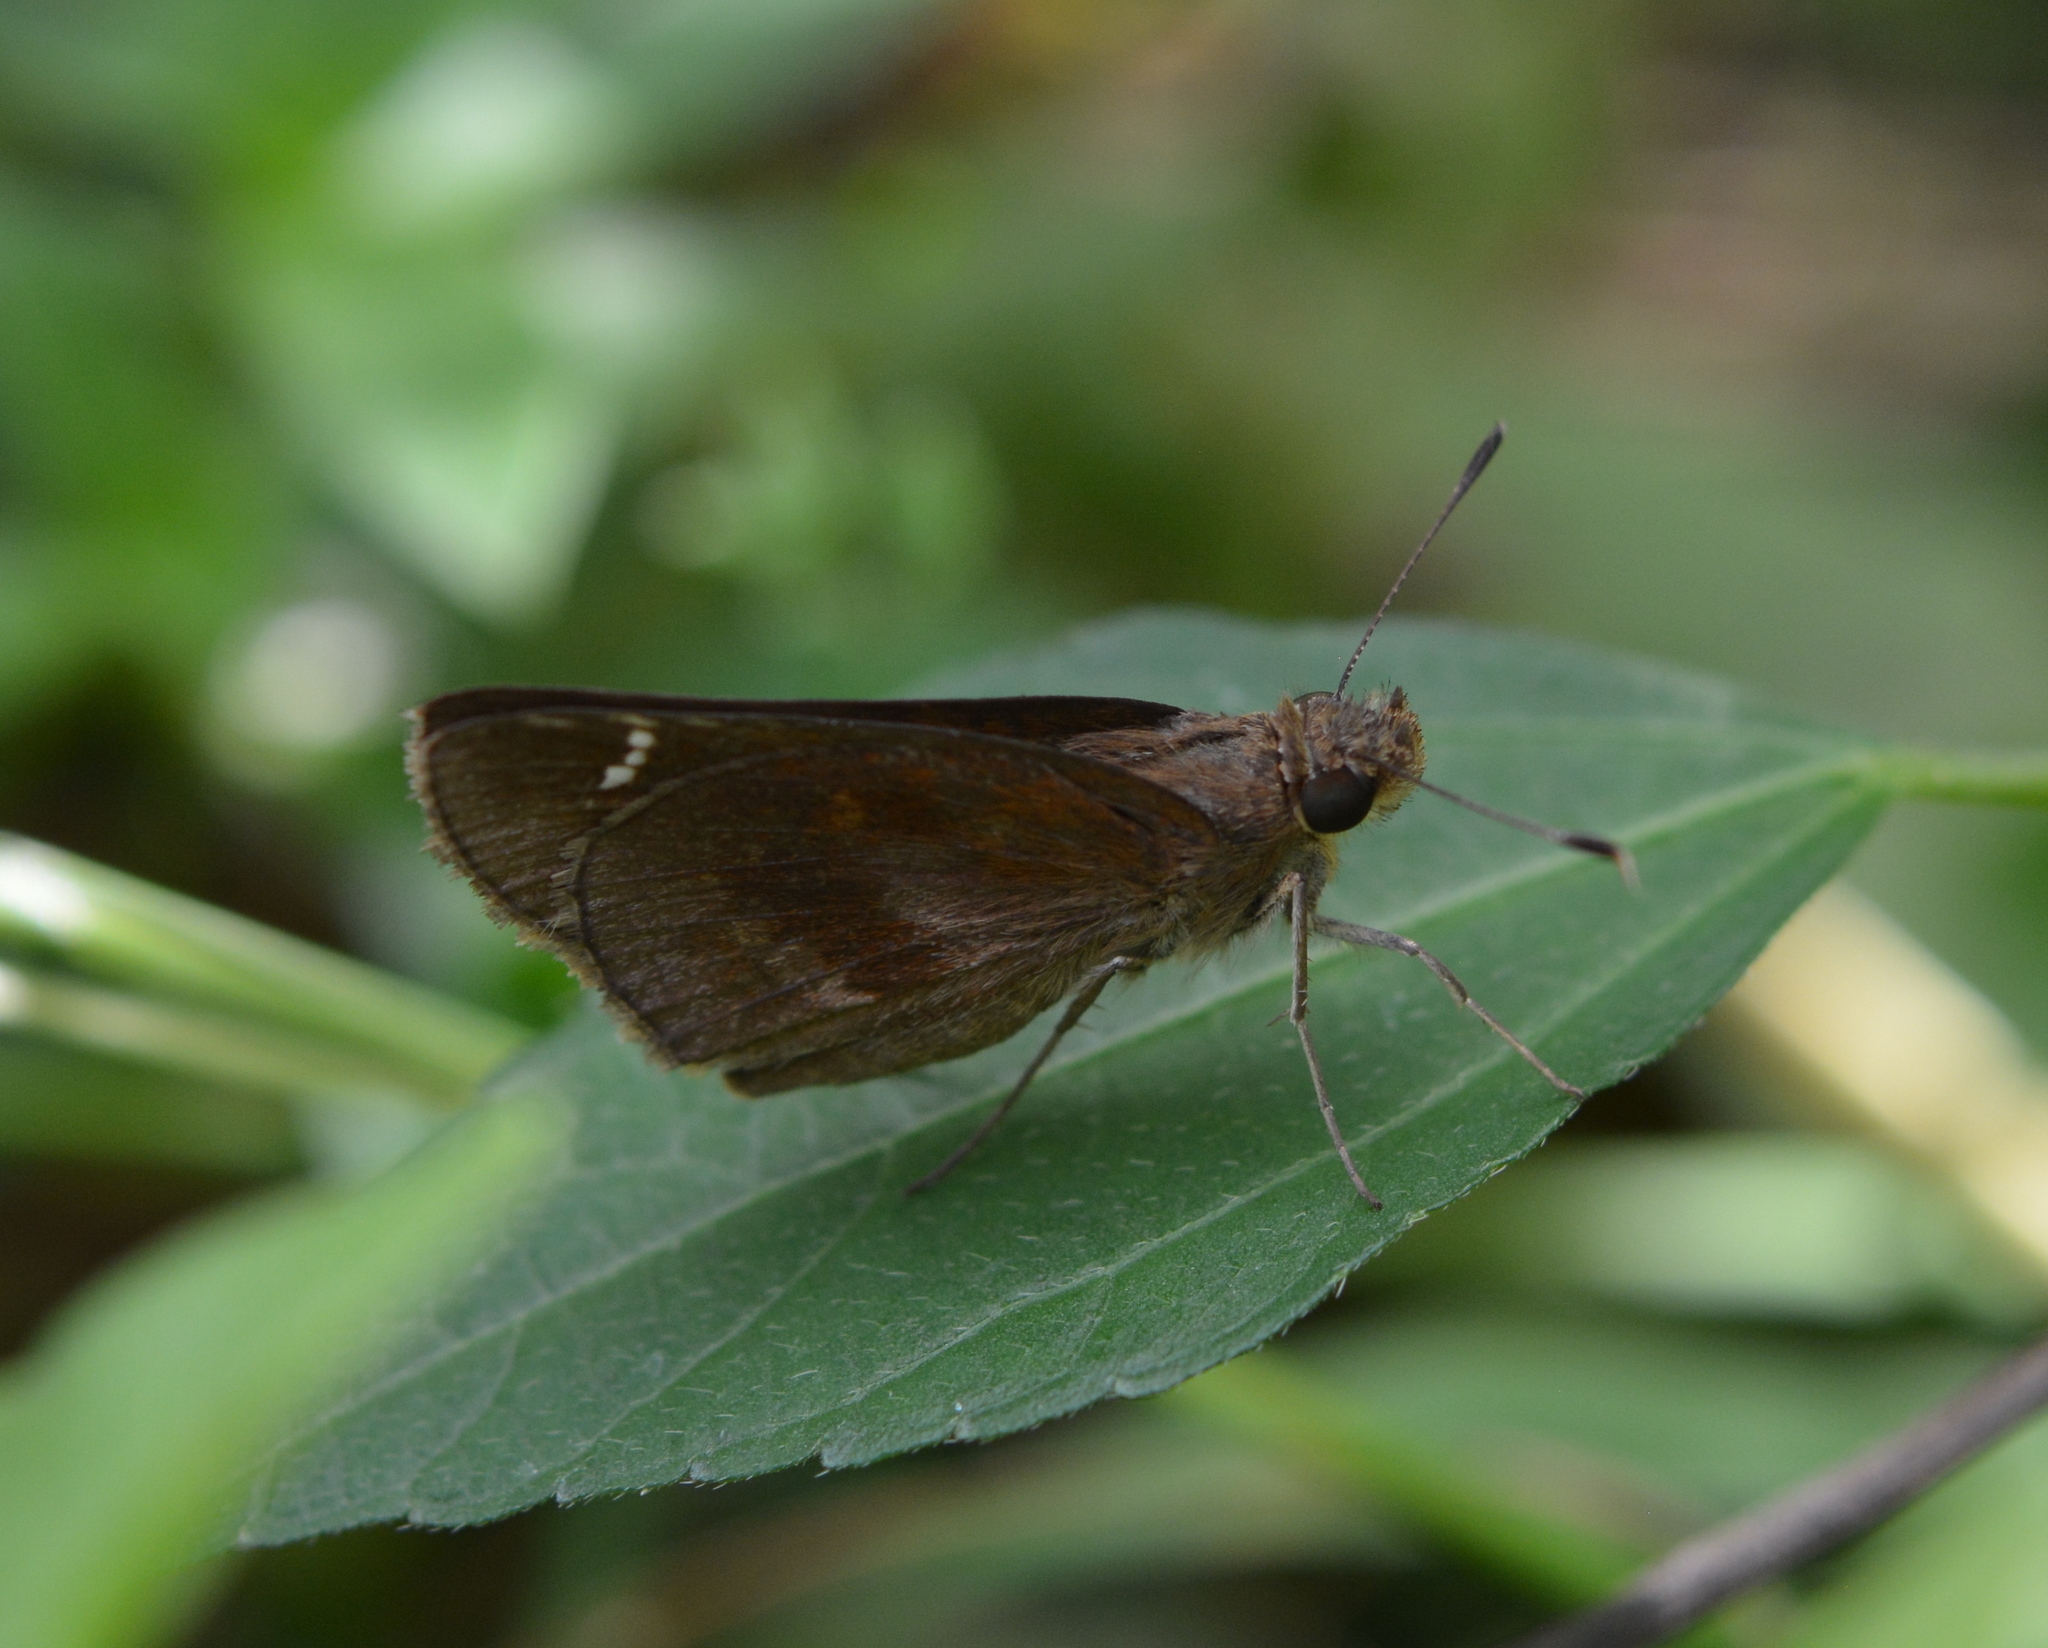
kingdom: Animalia
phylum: Arthropoda
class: Insecta
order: Lepidoptera
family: Hesperiidae
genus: Lerema
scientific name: Lerema accius
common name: Clouded skipper
